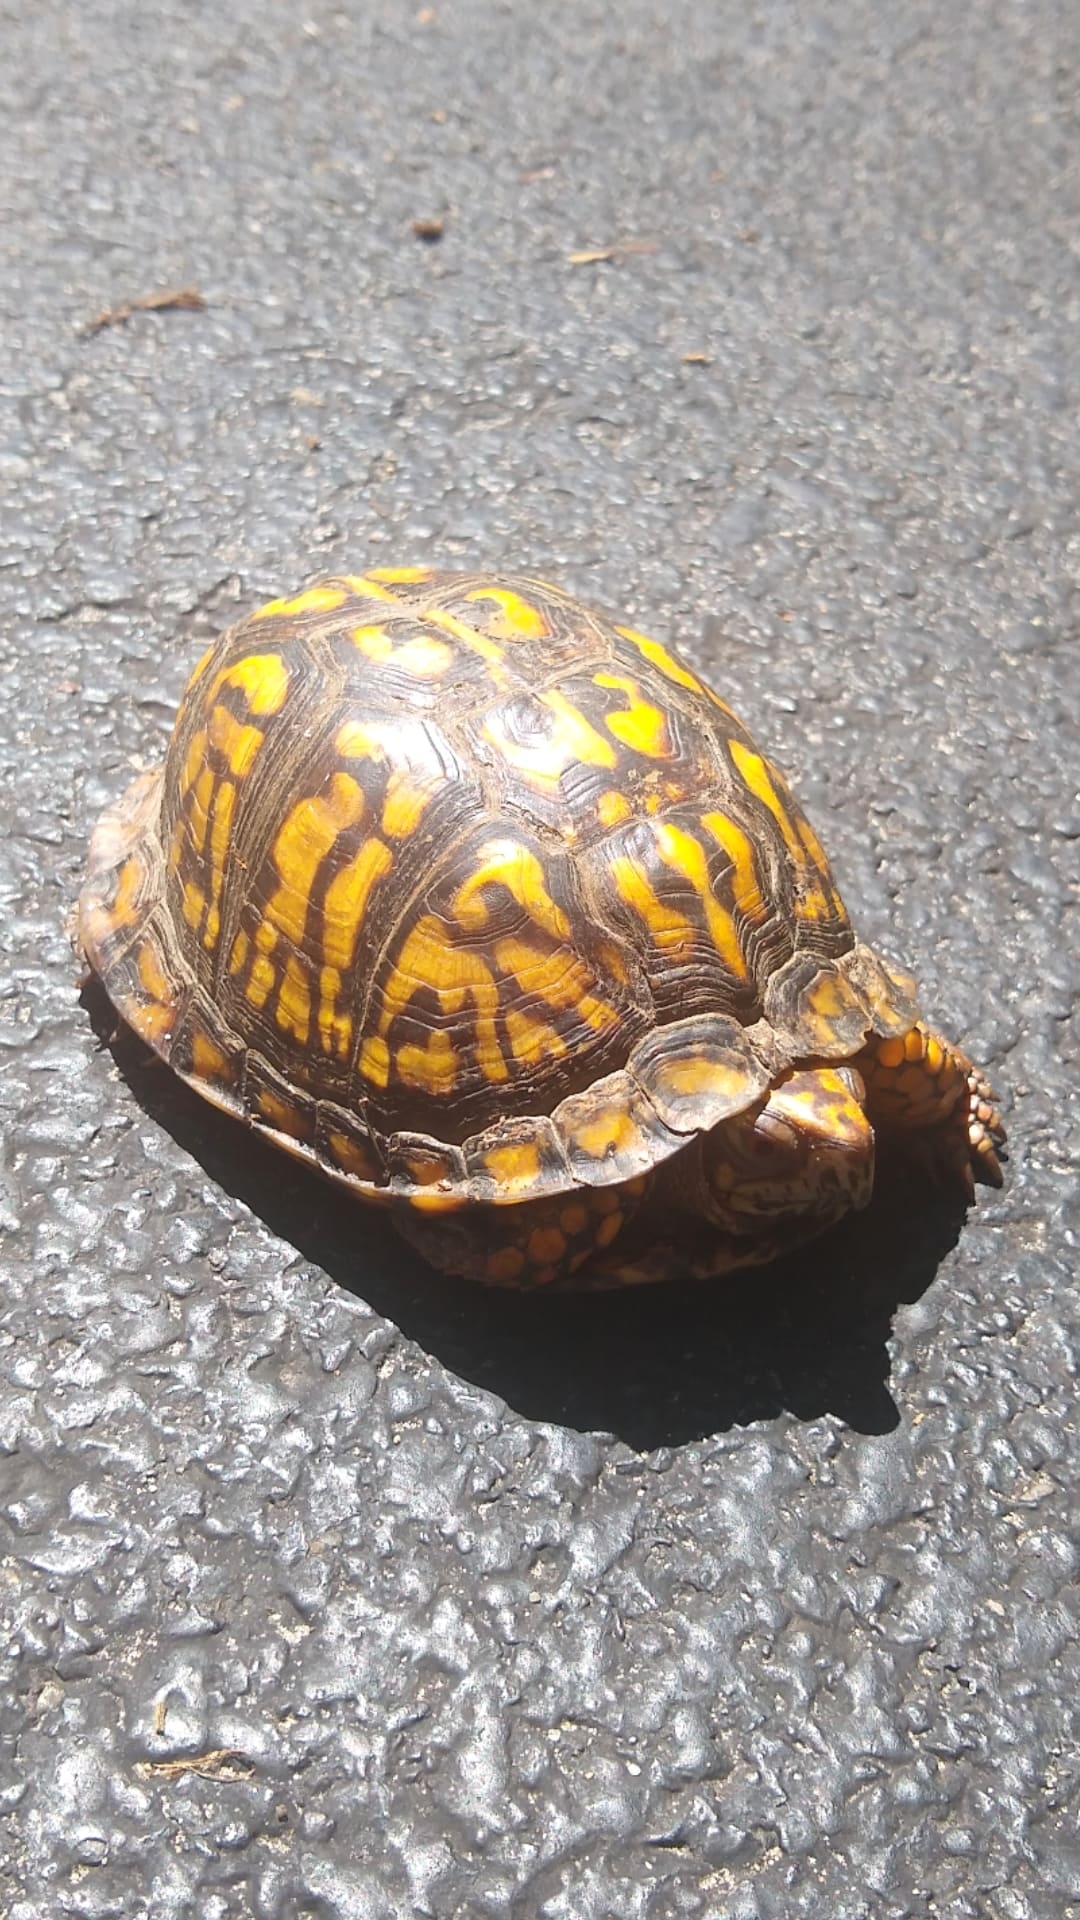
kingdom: Animalia
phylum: Chordata
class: Testudines
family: Emydidae
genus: Terrapene
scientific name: Terrapene carolina
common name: Common box turtle
